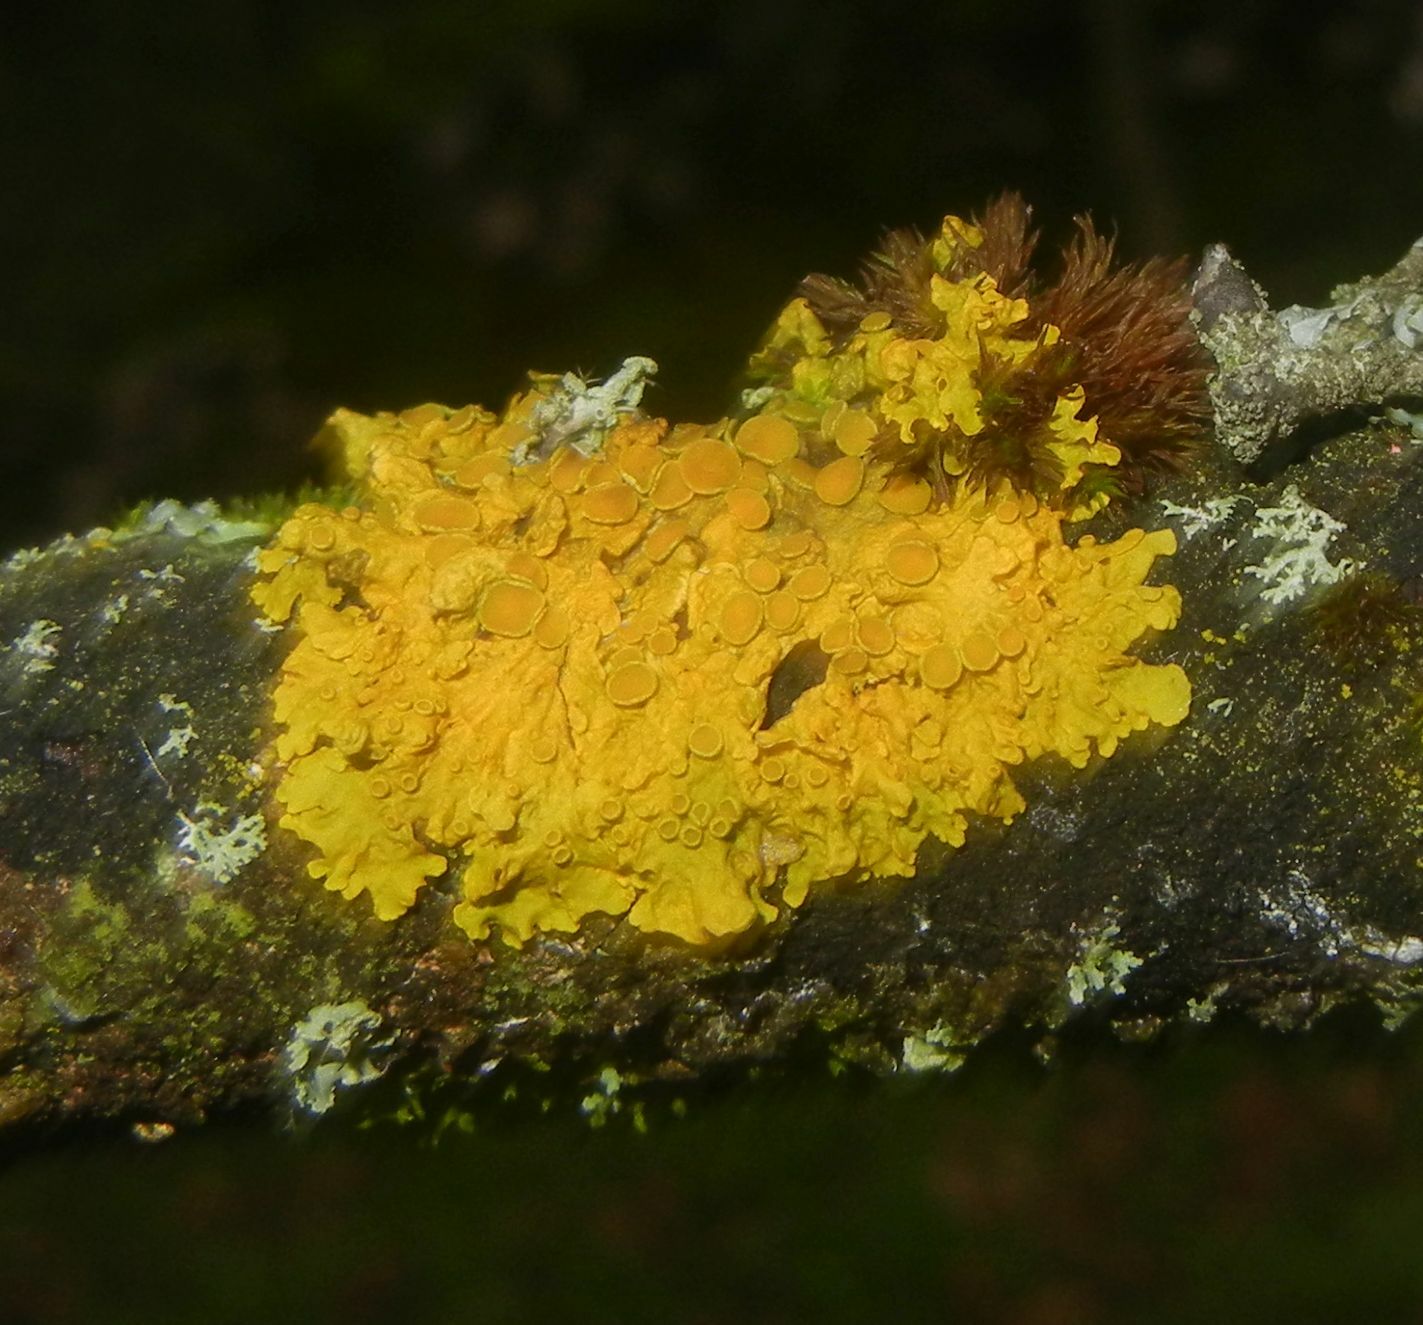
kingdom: Fungi
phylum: Ascomycota
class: Lecanoromycetes
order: Teloschistales
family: Teloschistaceae
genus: Xanthoria
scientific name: Xanthoria parietina
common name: Common orange lichen
